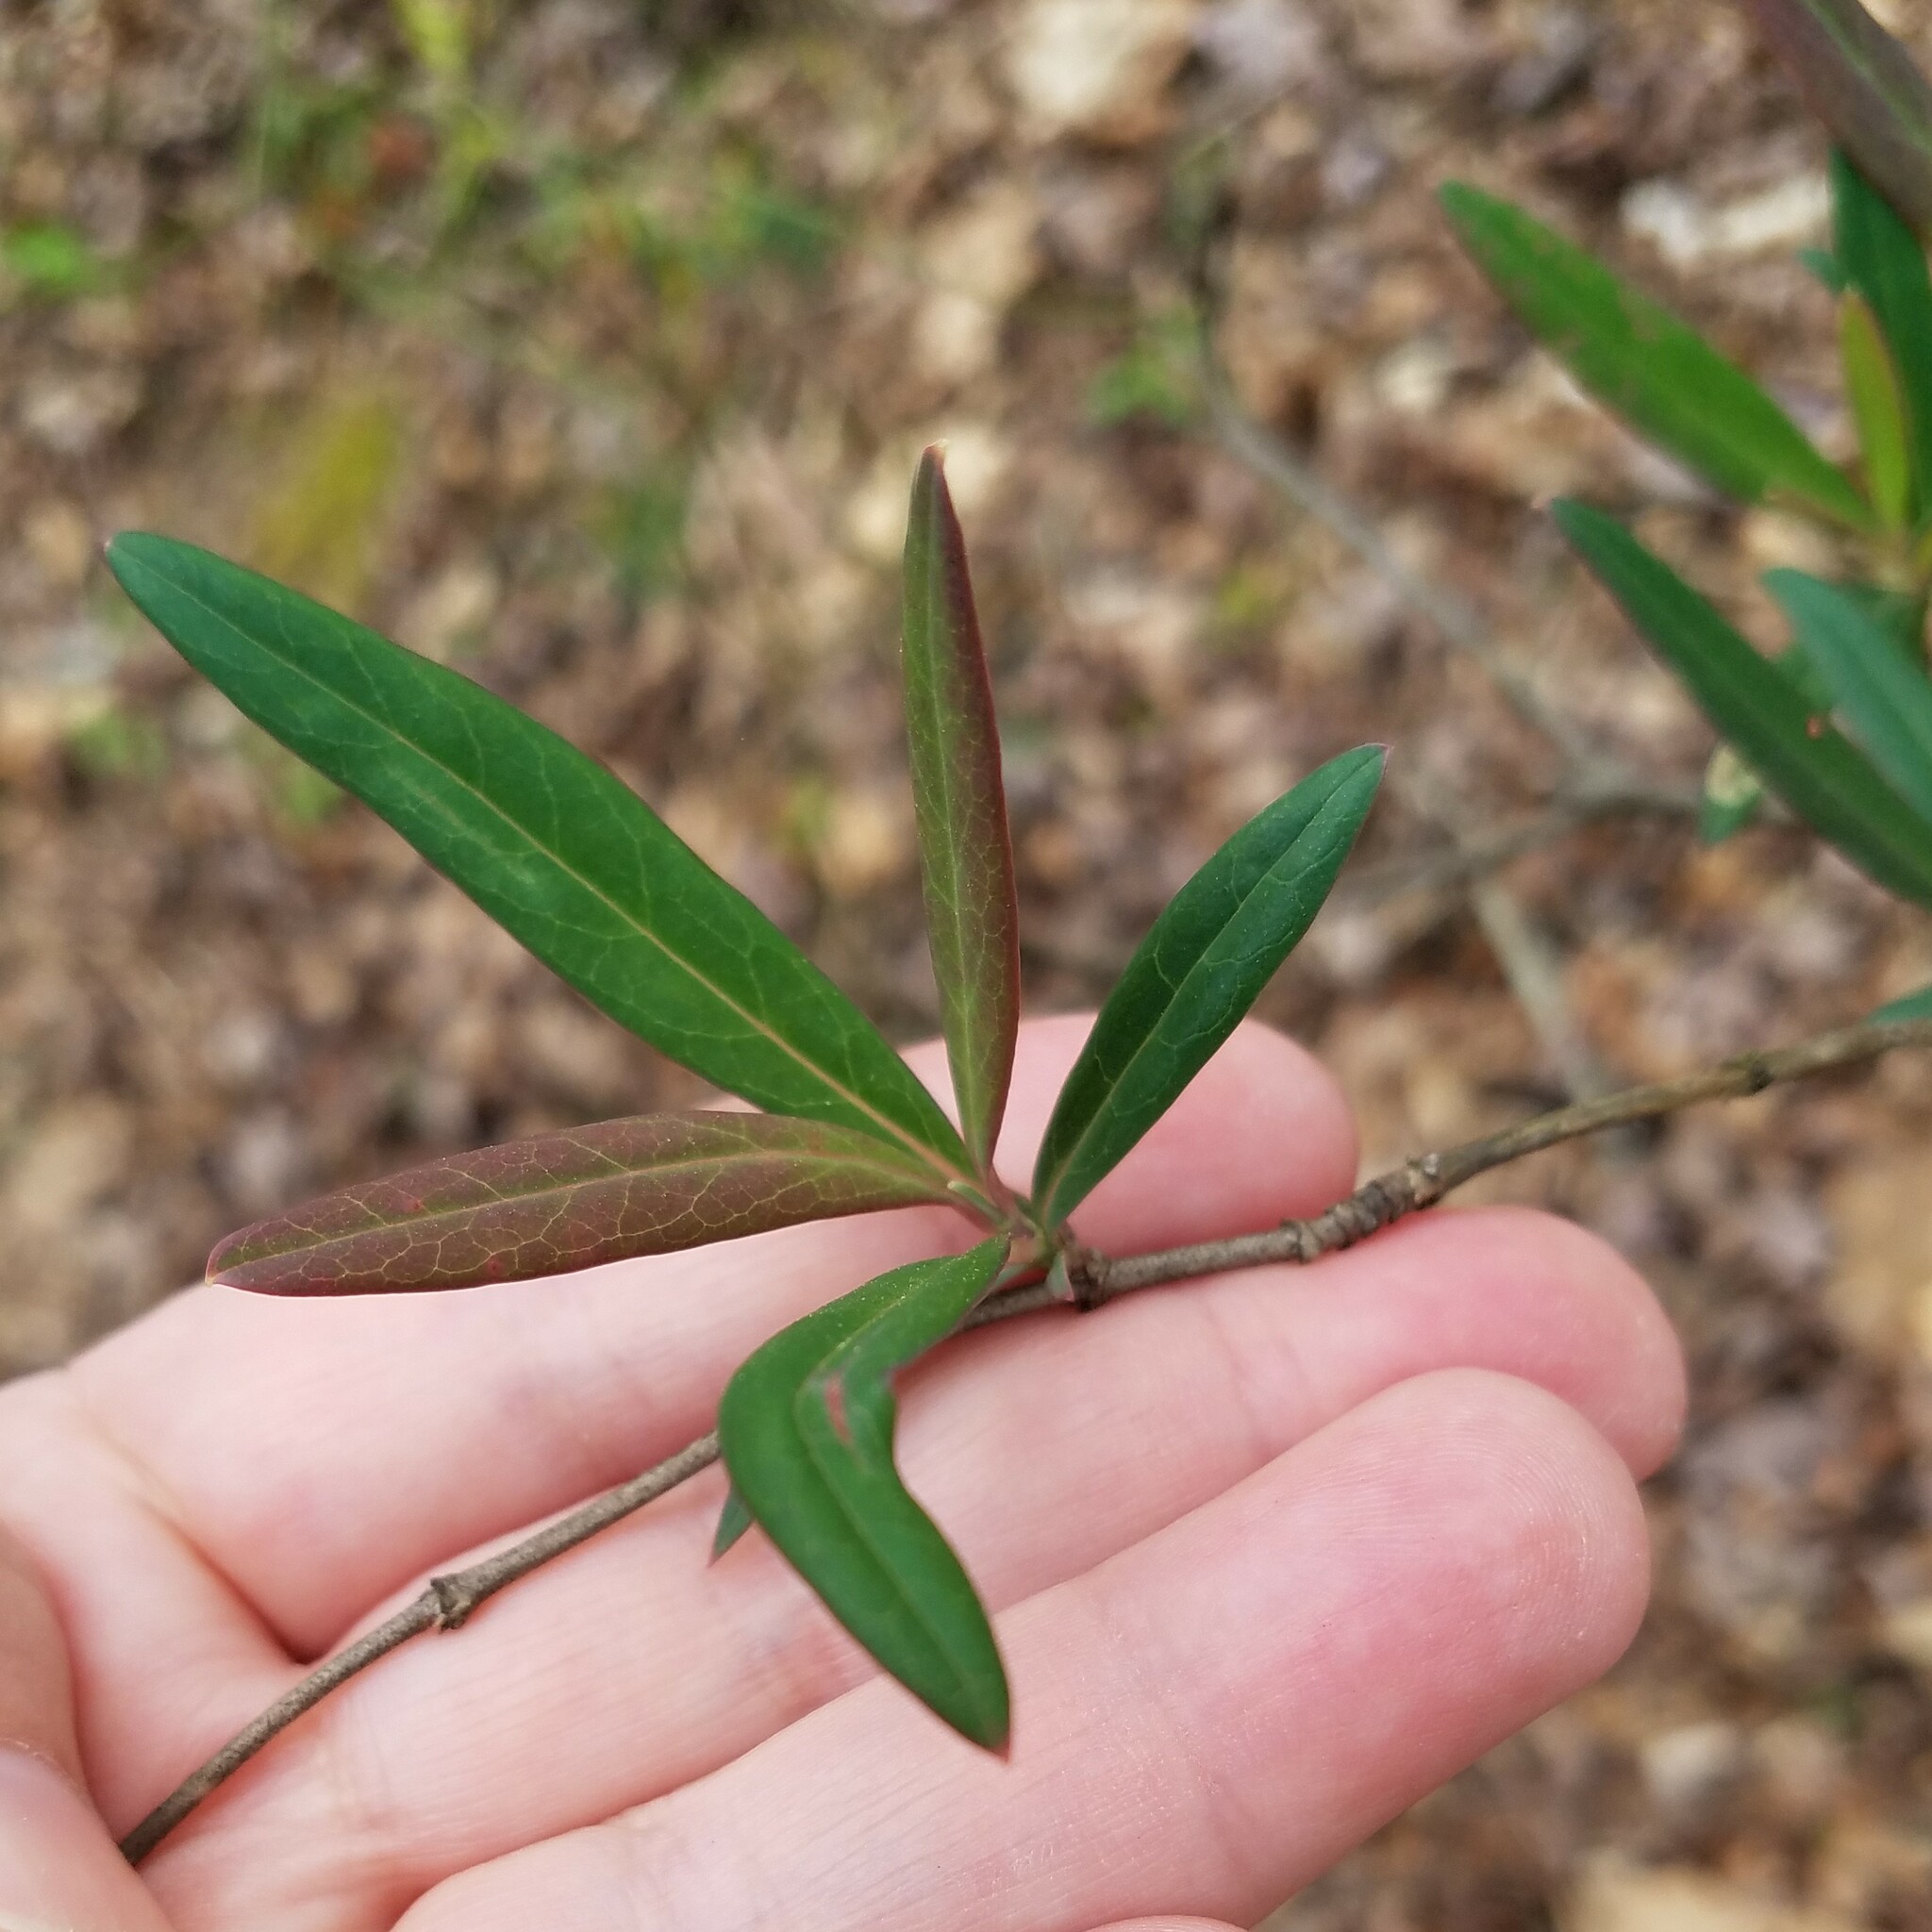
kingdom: Plantae
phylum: Tracheophyta
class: Magnoliopsida
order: Dipsacales
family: Caprifoliaceae
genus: Lonicera
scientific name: Lonicera sempervirens
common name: Coral honeysuckle
